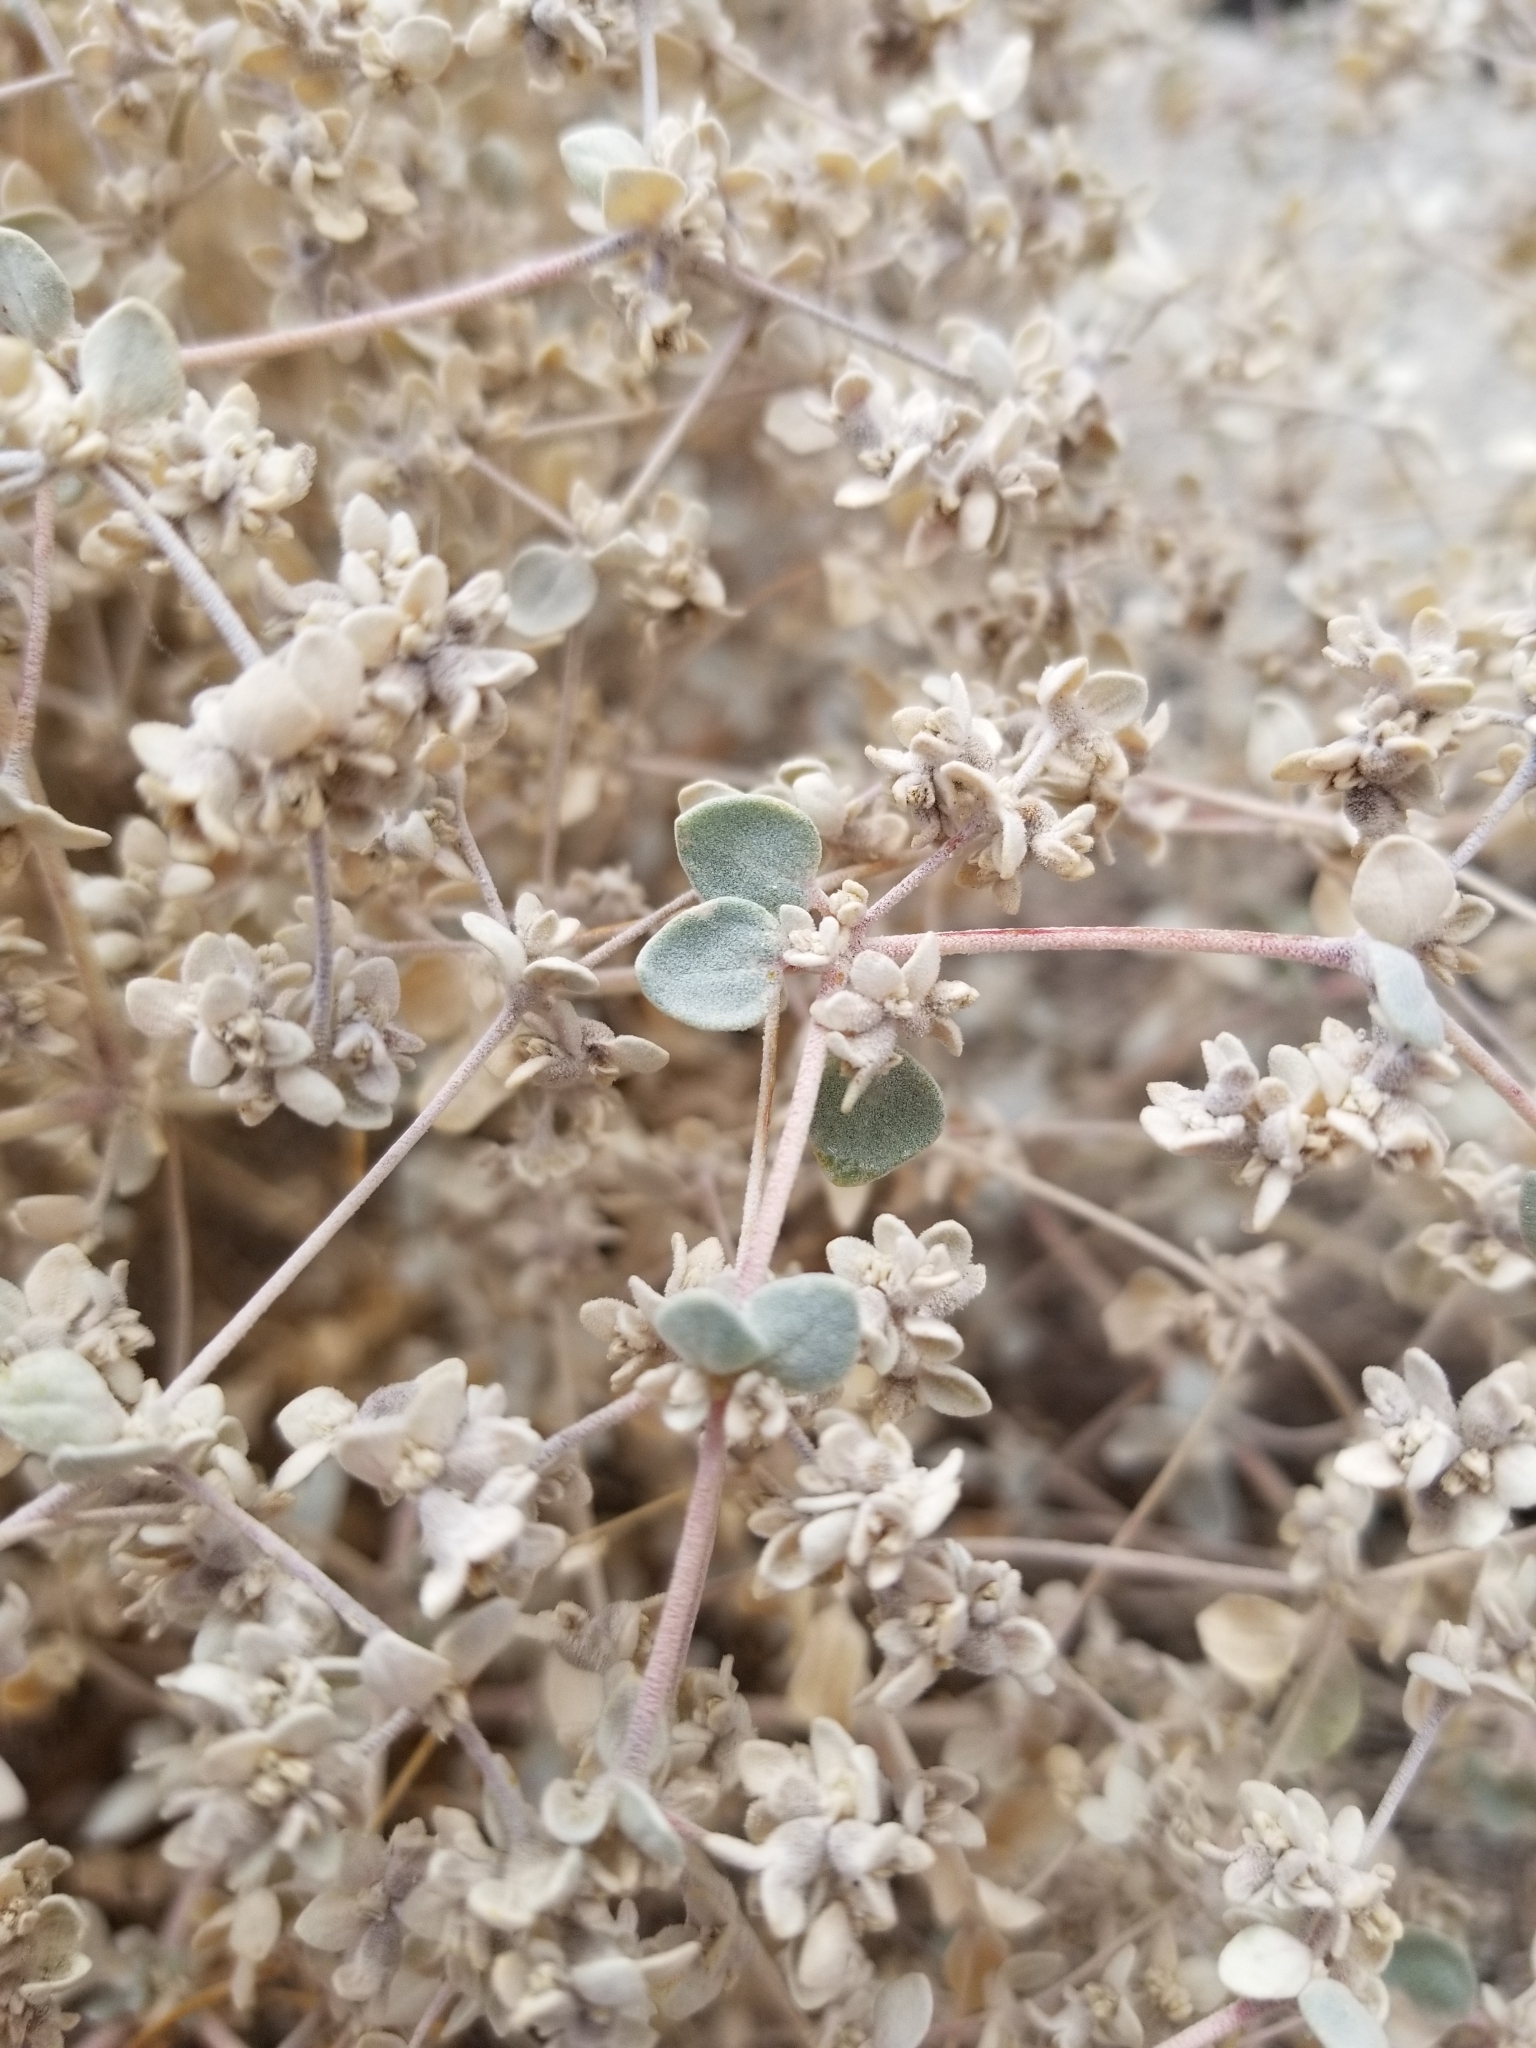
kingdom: Plantae
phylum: Tracheophyta
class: Magnoliopsida
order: Caryophyllales
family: Amaranthaceae
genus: Tidestromia
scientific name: Tidestromia suffruticosa
